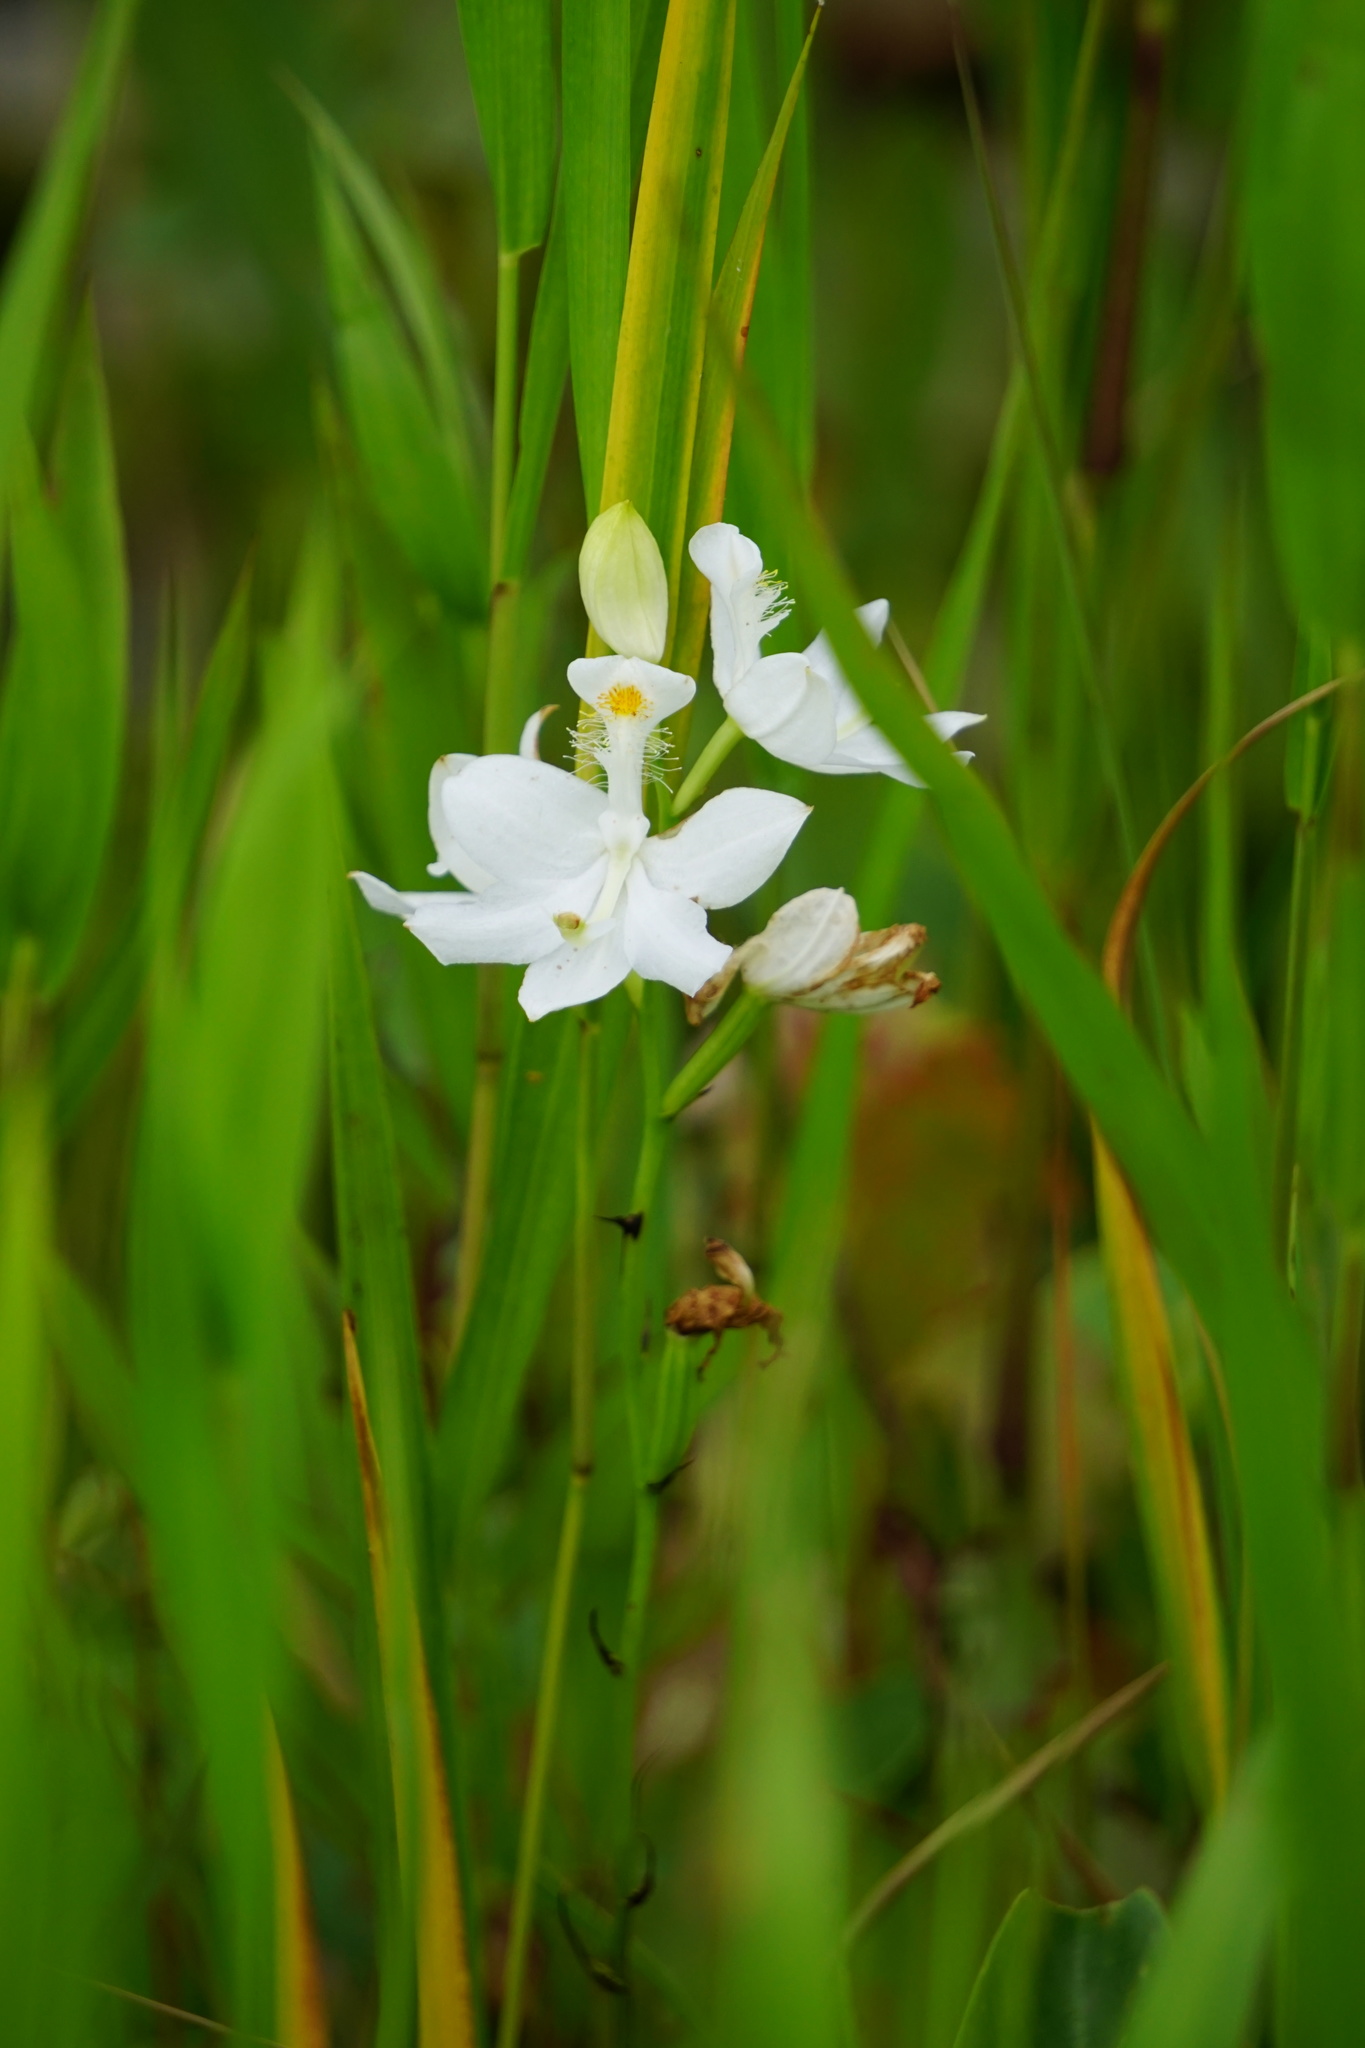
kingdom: Plantae
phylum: Tracheophyta
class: Liliopsida
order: Asparagales
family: Orchidaceae
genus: Calopogon
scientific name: Calopogon tuberosus
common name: Grass-pink
